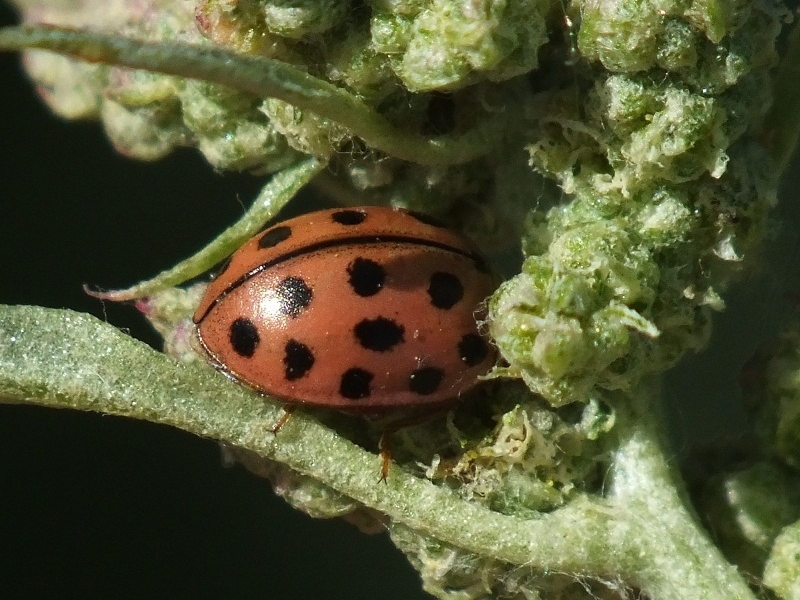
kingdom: Animalia
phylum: Arthropoda
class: Insecta
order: Coleoptera
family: Coccinellidae
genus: Bulaea
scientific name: Bulaea lichatschovi
